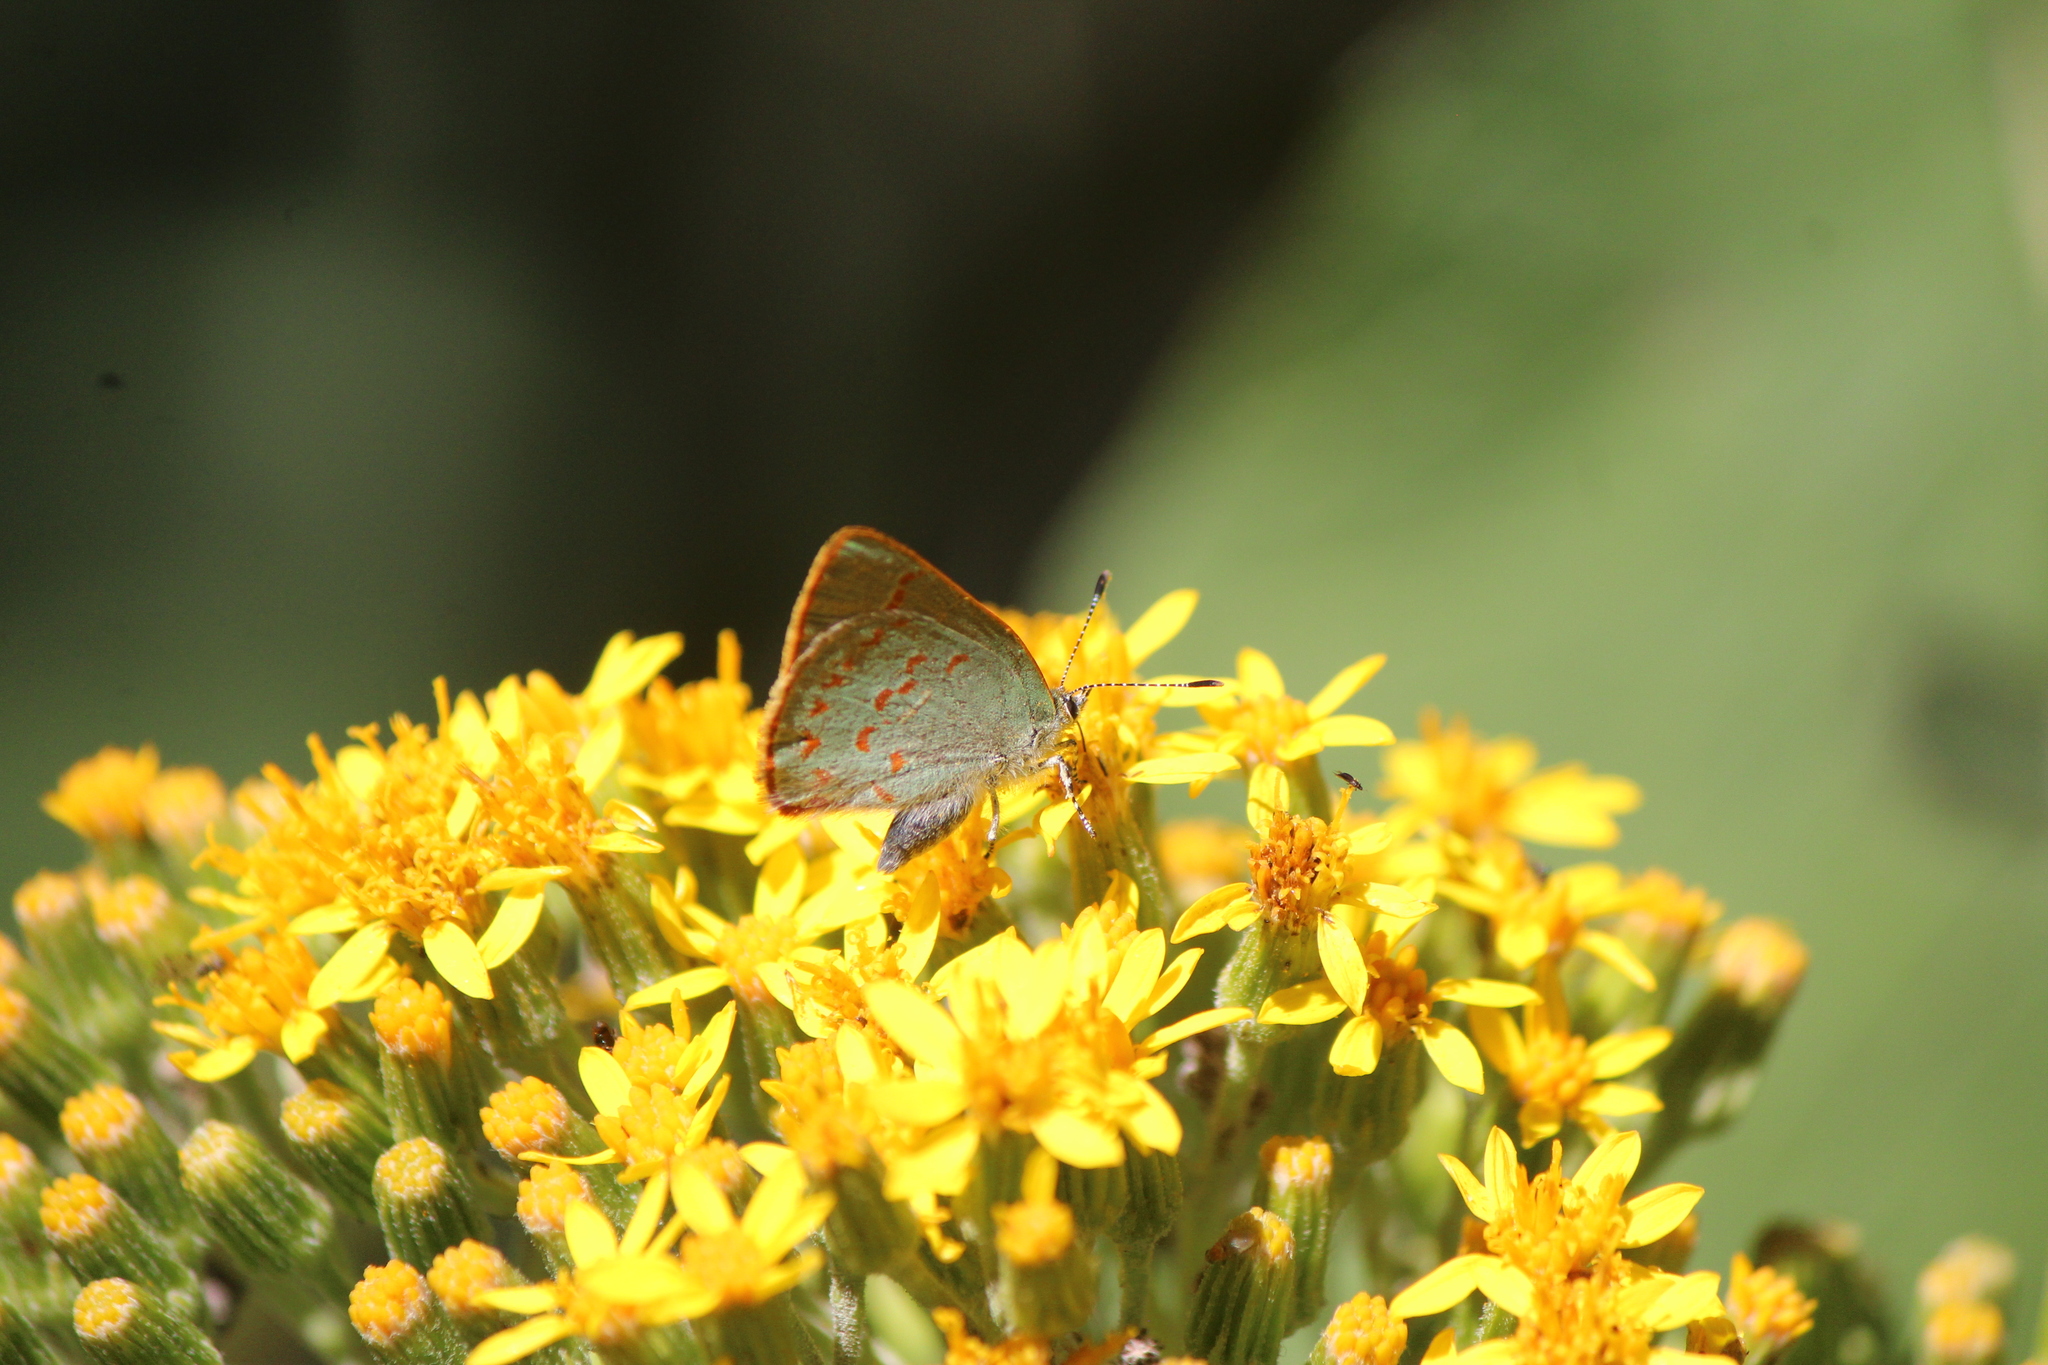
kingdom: Animalia
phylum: Arthropoda
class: Insecta
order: Lepidoptera
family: Lycaenidae
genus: Erora
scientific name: Erora quaderna
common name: Arizona hairstreak
